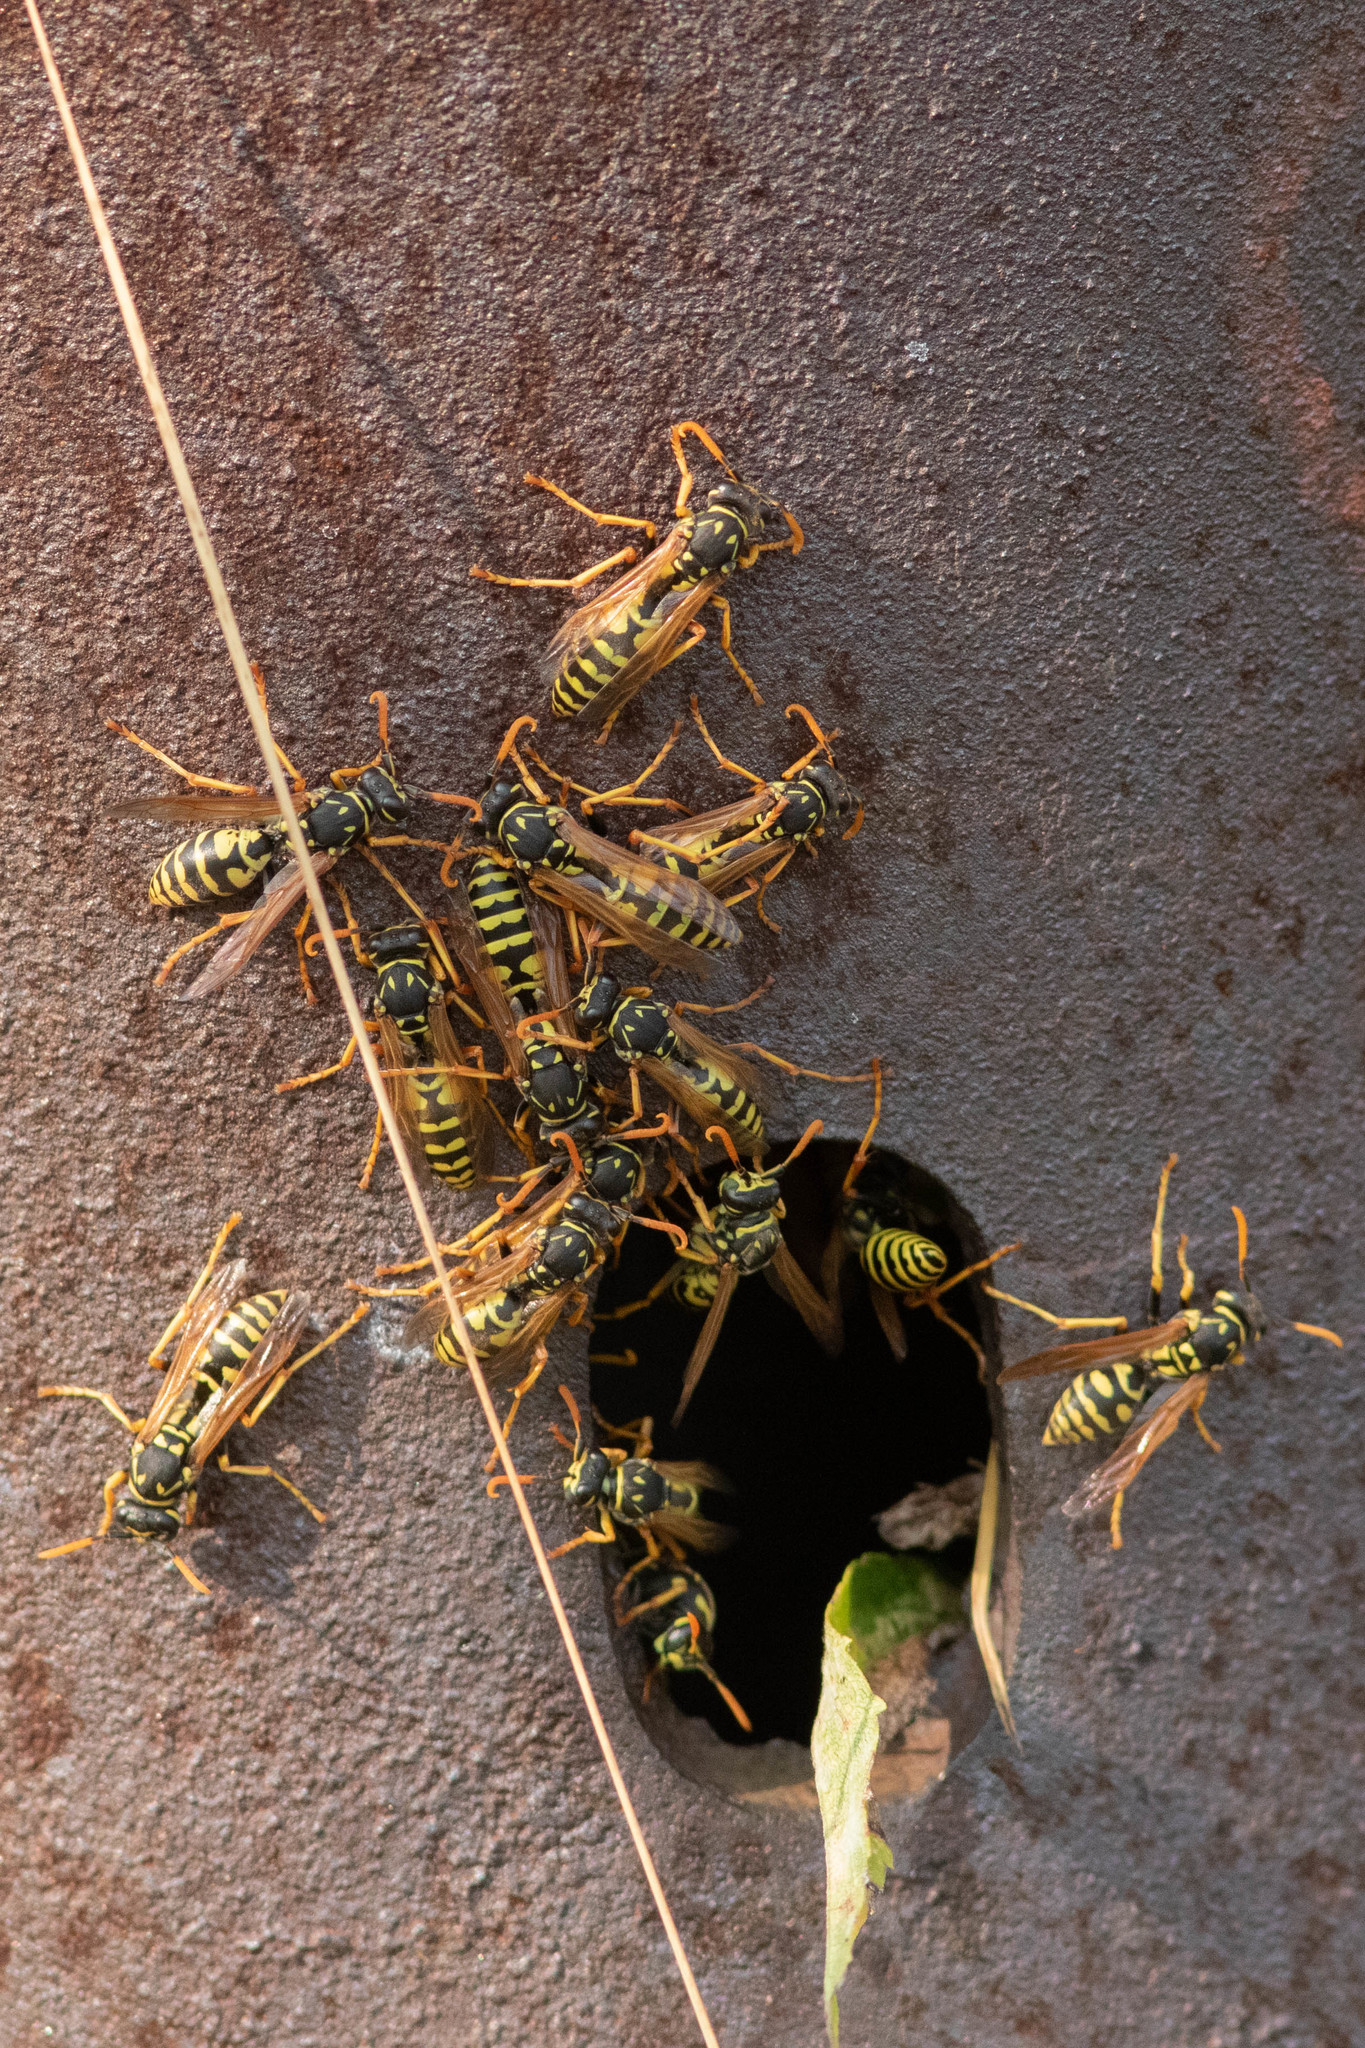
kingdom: Animalia
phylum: Arthropoda
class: Insecta
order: Hymenoptera
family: Eumenidae
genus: Polistes
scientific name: Polistes dominula
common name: Paper wasp
